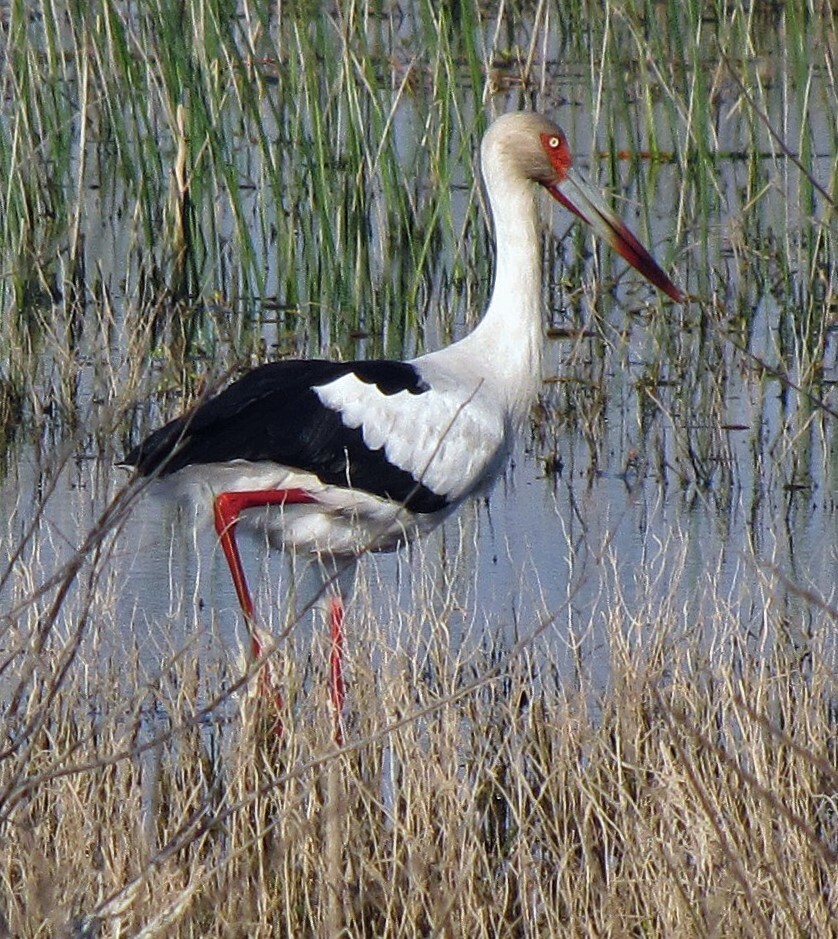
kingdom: Animalia
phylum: Chordata
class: Aves
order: Ciconiiformes
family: Ciconiidae
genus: Ciconia
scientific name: Ciconia maguari
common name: Maguari stork
